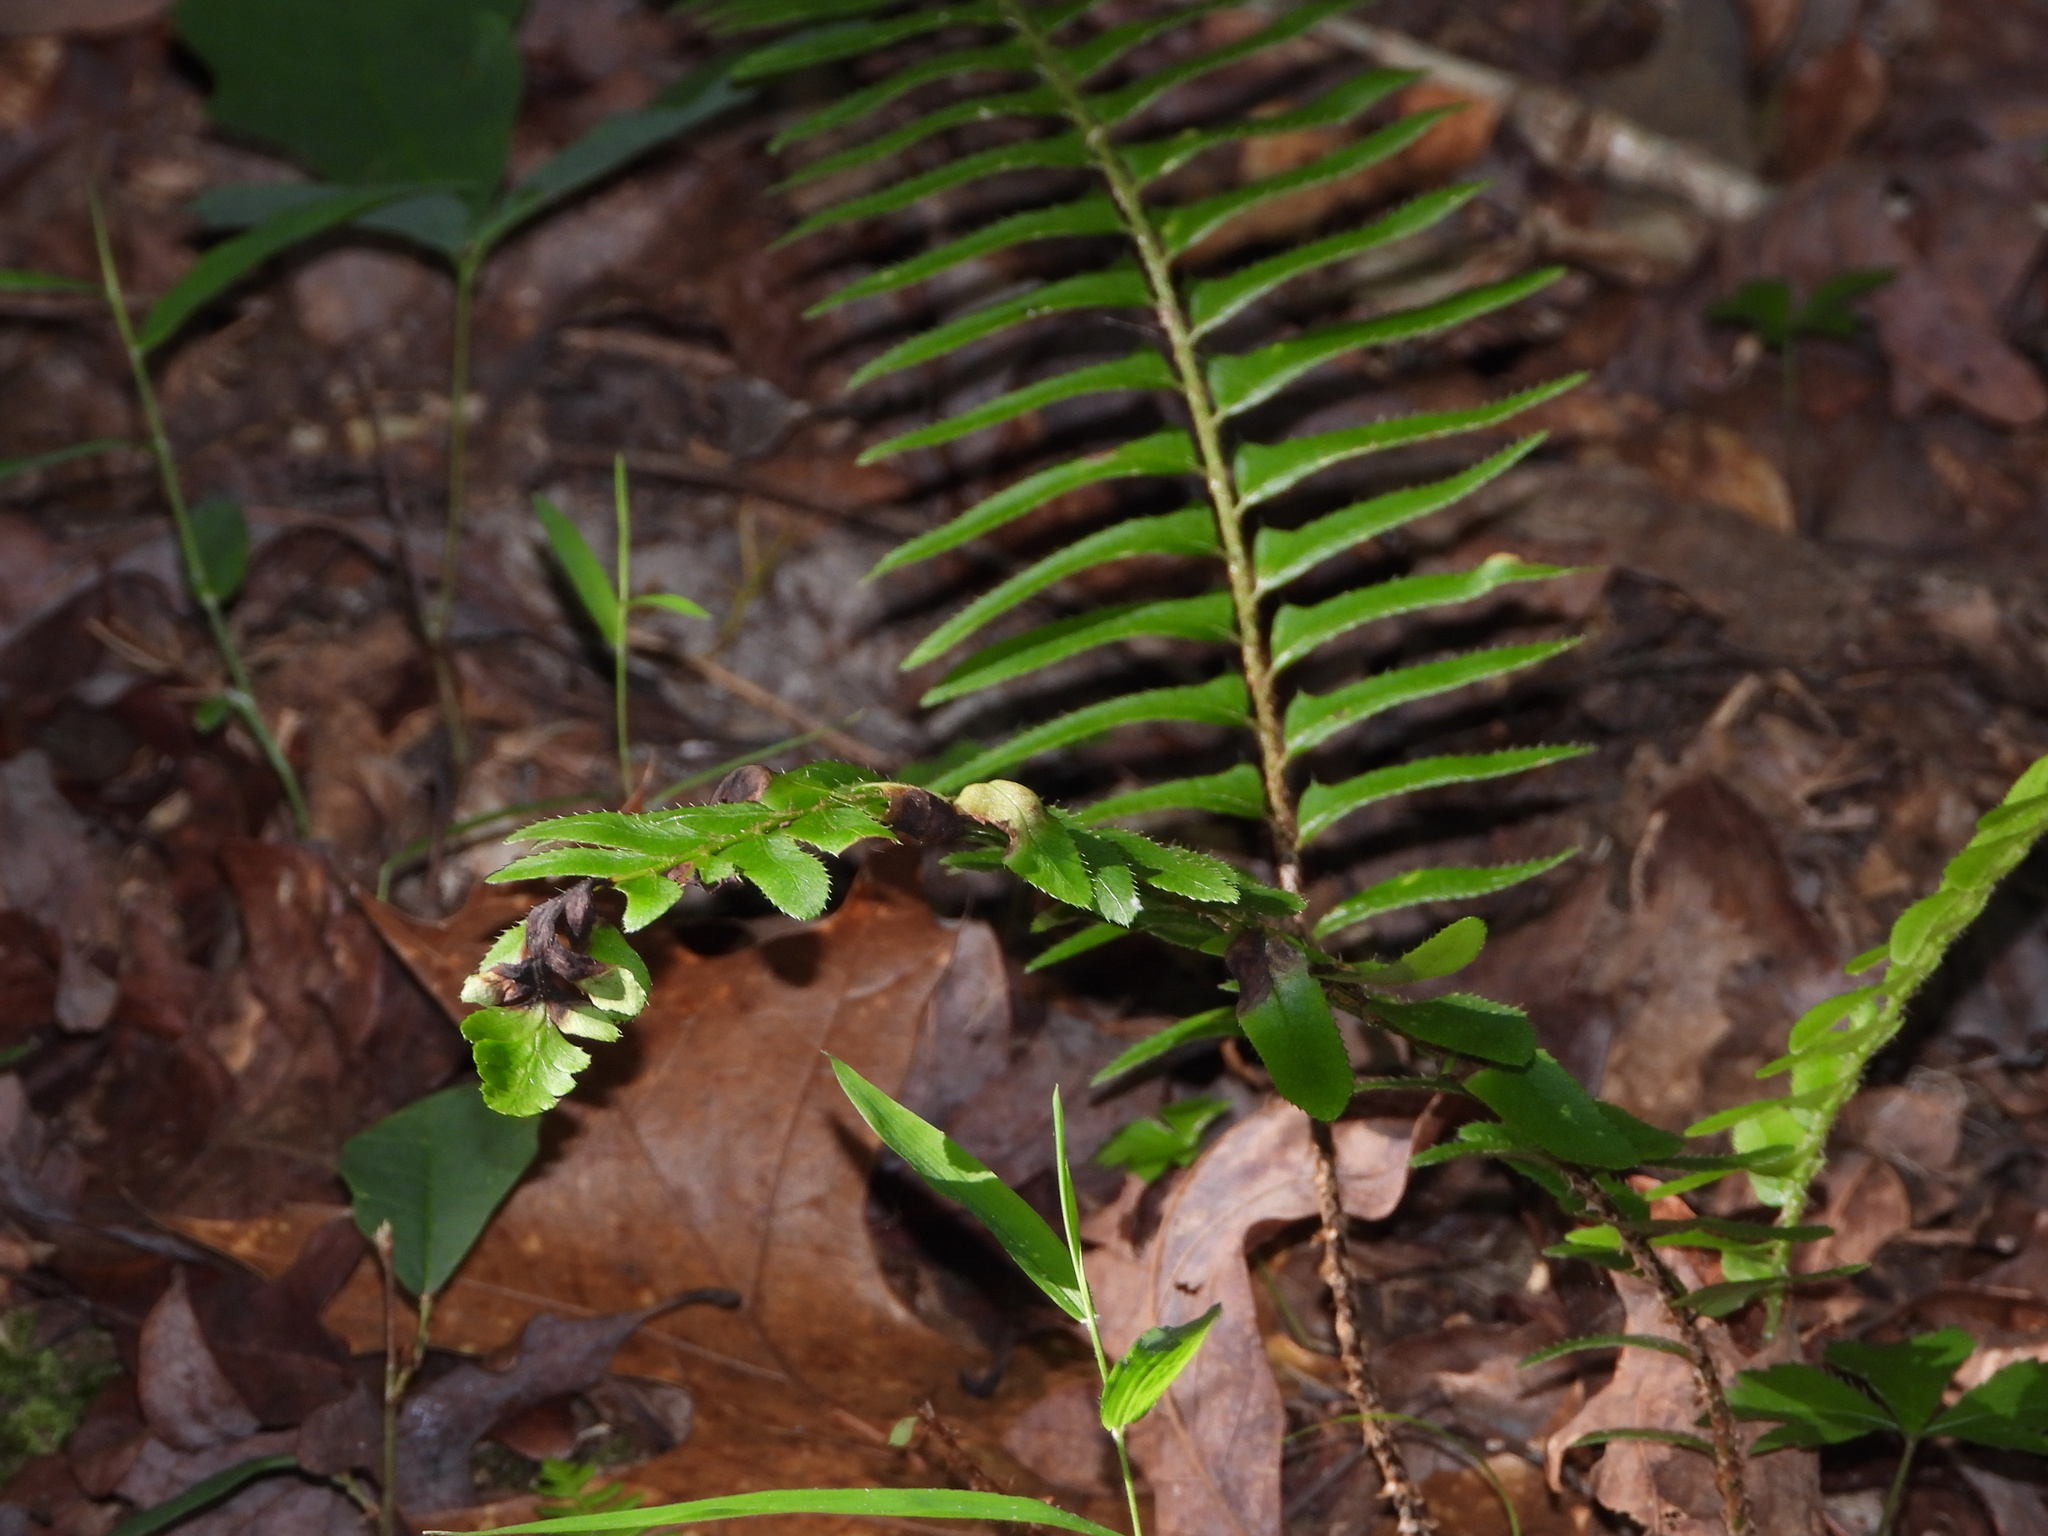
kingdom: Plantae
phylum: Tracheophyta
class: Polypodiopsida
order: Polypodiales
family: Dryopteridaceae
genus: Polystichum
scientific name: Polystichum acrostichoides
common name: Christmas fern
